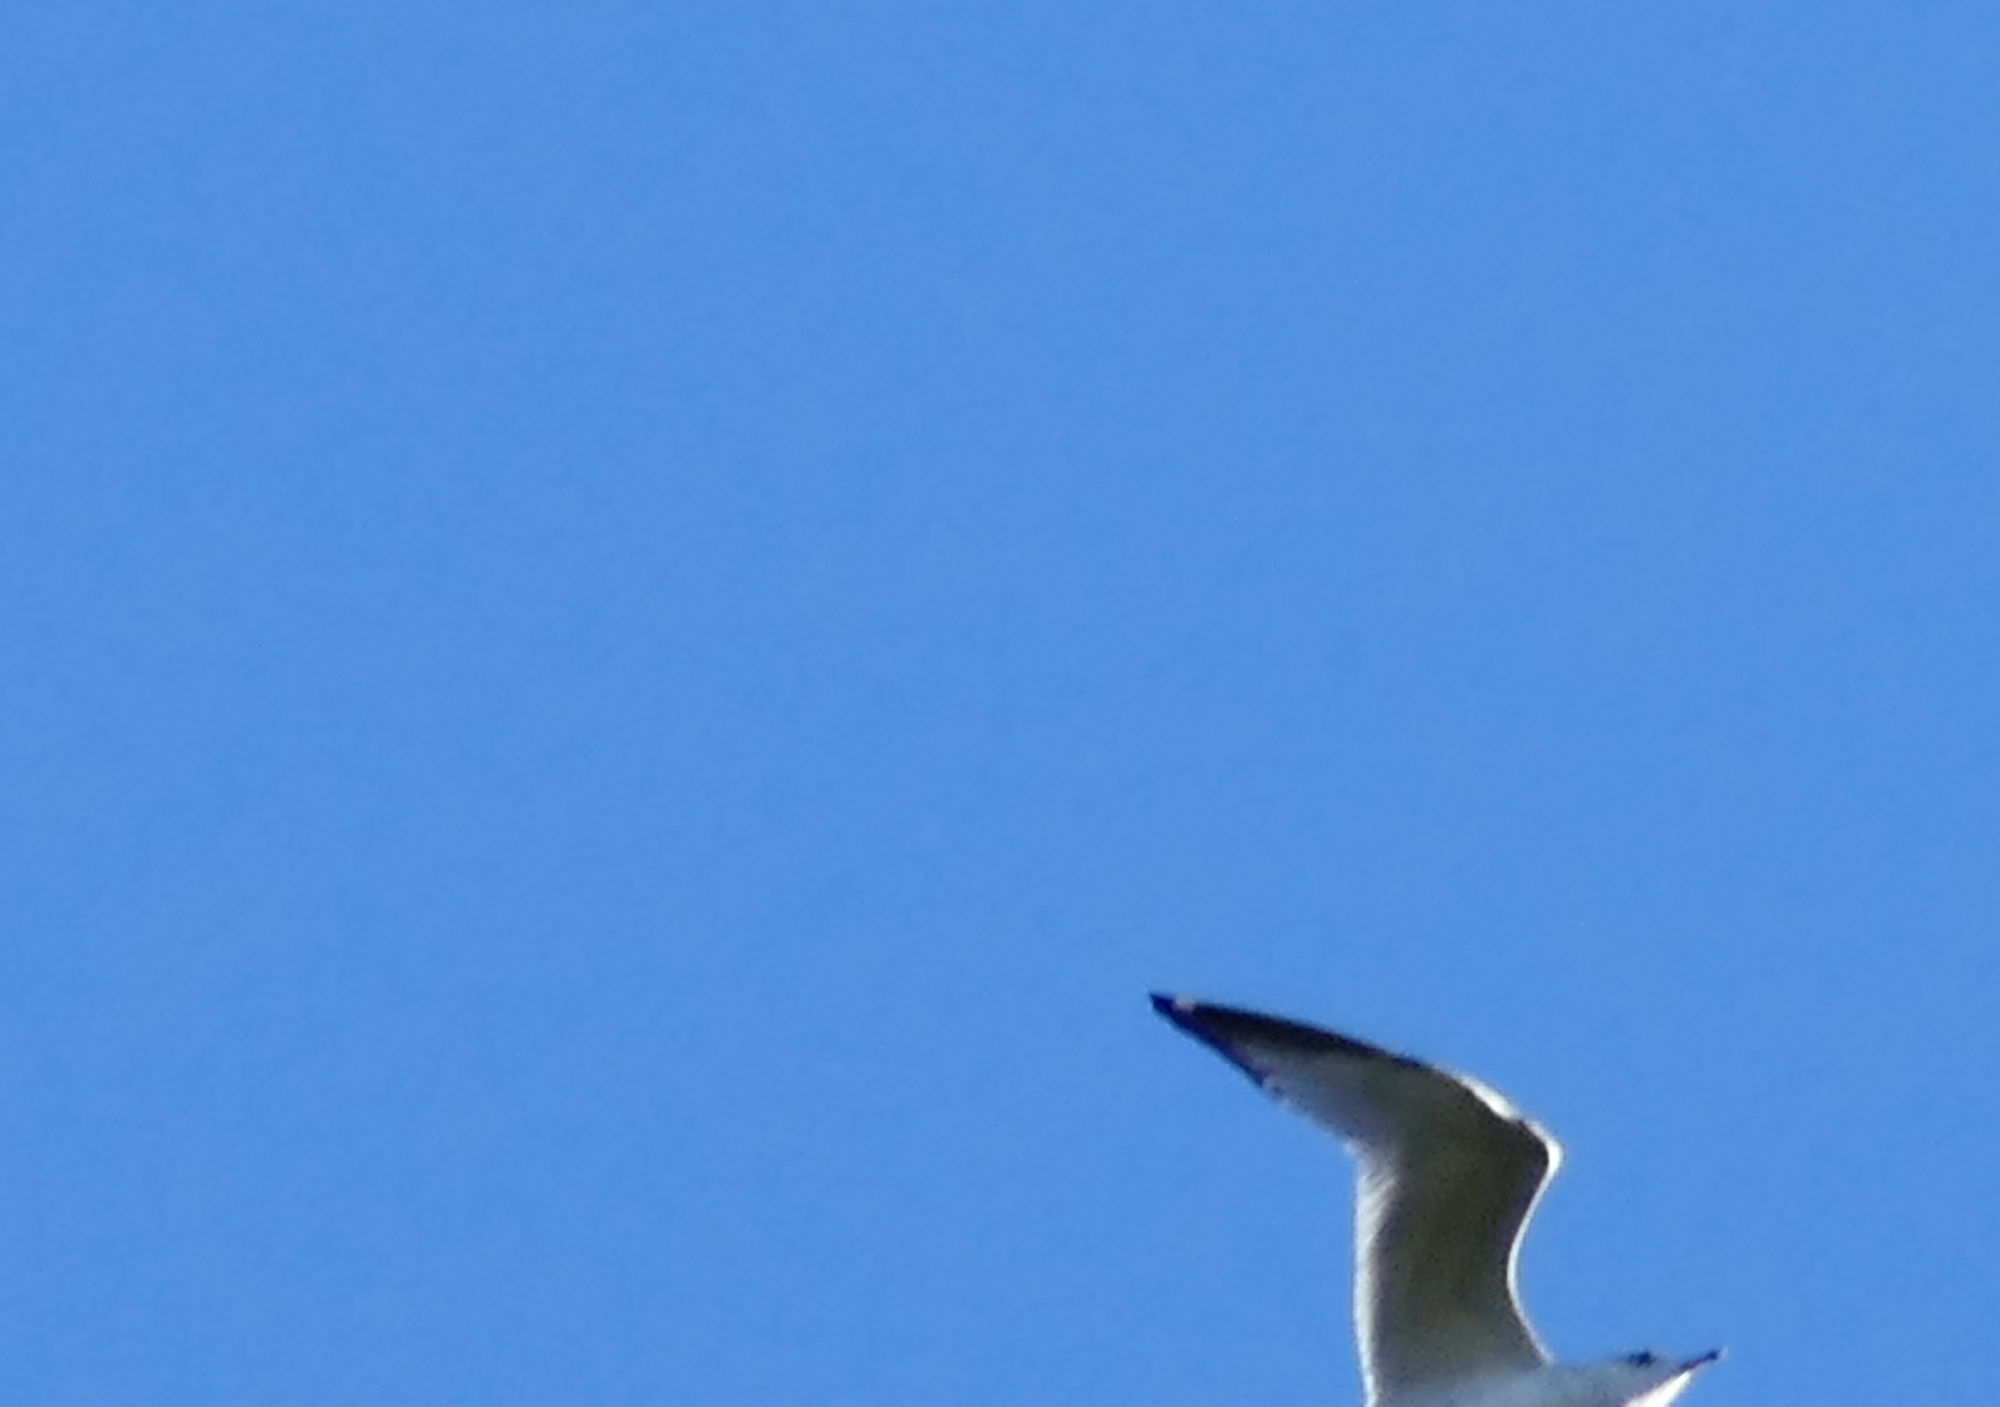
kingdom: Animalia
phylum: Chordata
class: Aves
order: Charadriiformes
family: Laridae
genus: Larus
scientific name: Larus delawarensis
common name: Ring-billed gull
